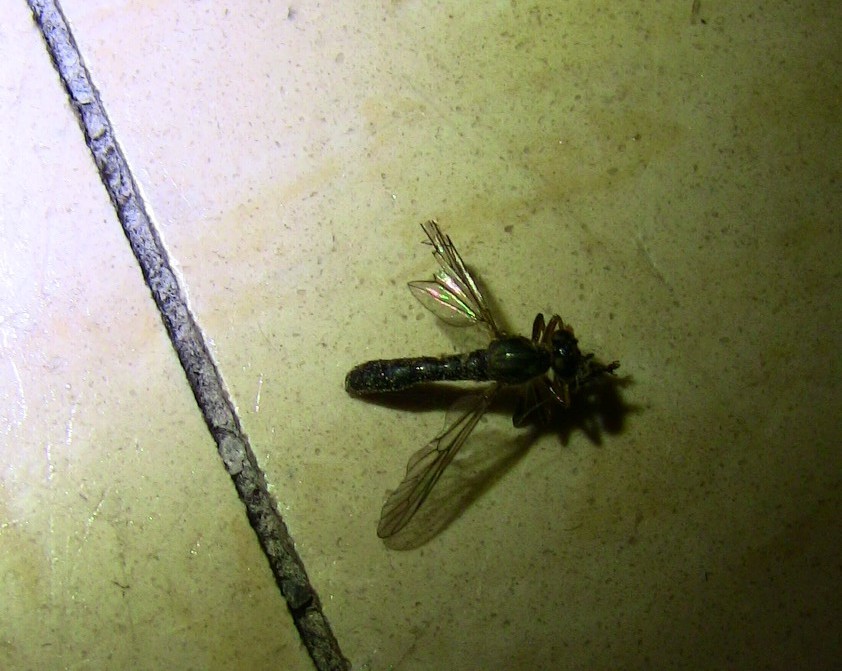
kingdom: Animalia
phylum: Arthropoda
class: Insecta
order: Diptera
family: Asilidae
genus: Dioctria
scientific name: Dioctria hyalipennis
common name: Stripe-legged robberfly
